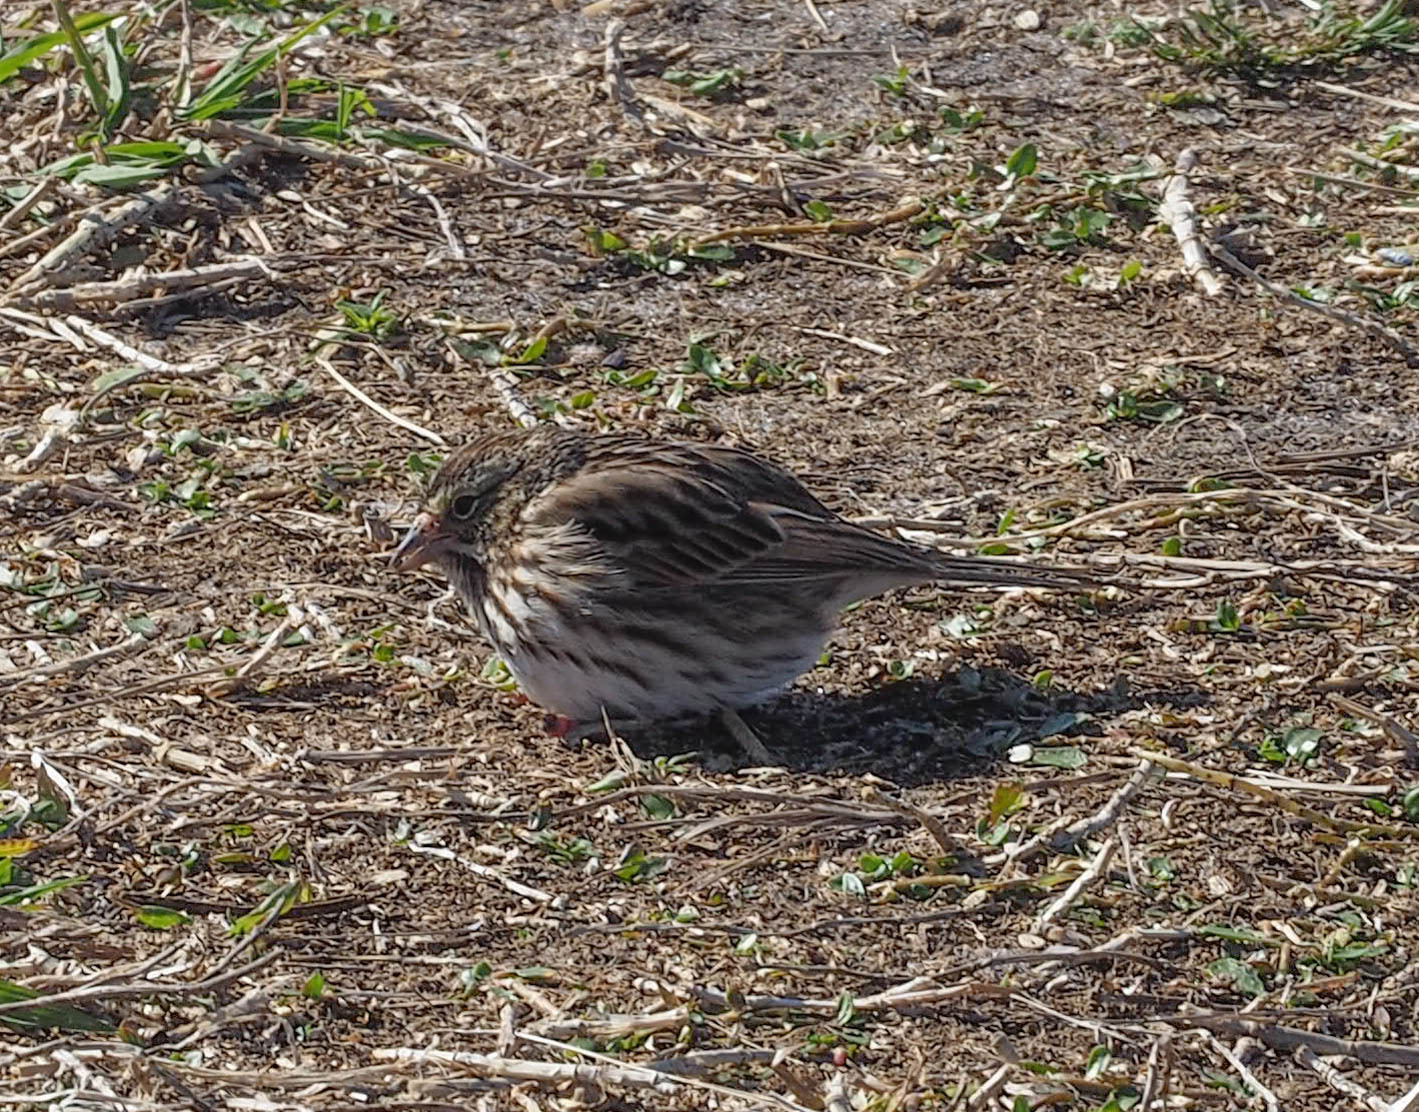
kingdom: Animalia
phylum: Chordata
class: Aves
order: Passeriformes
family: Passerellidae
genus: Passerculus
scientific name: Passerculus sandwichensis
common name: Savannah sparrow
